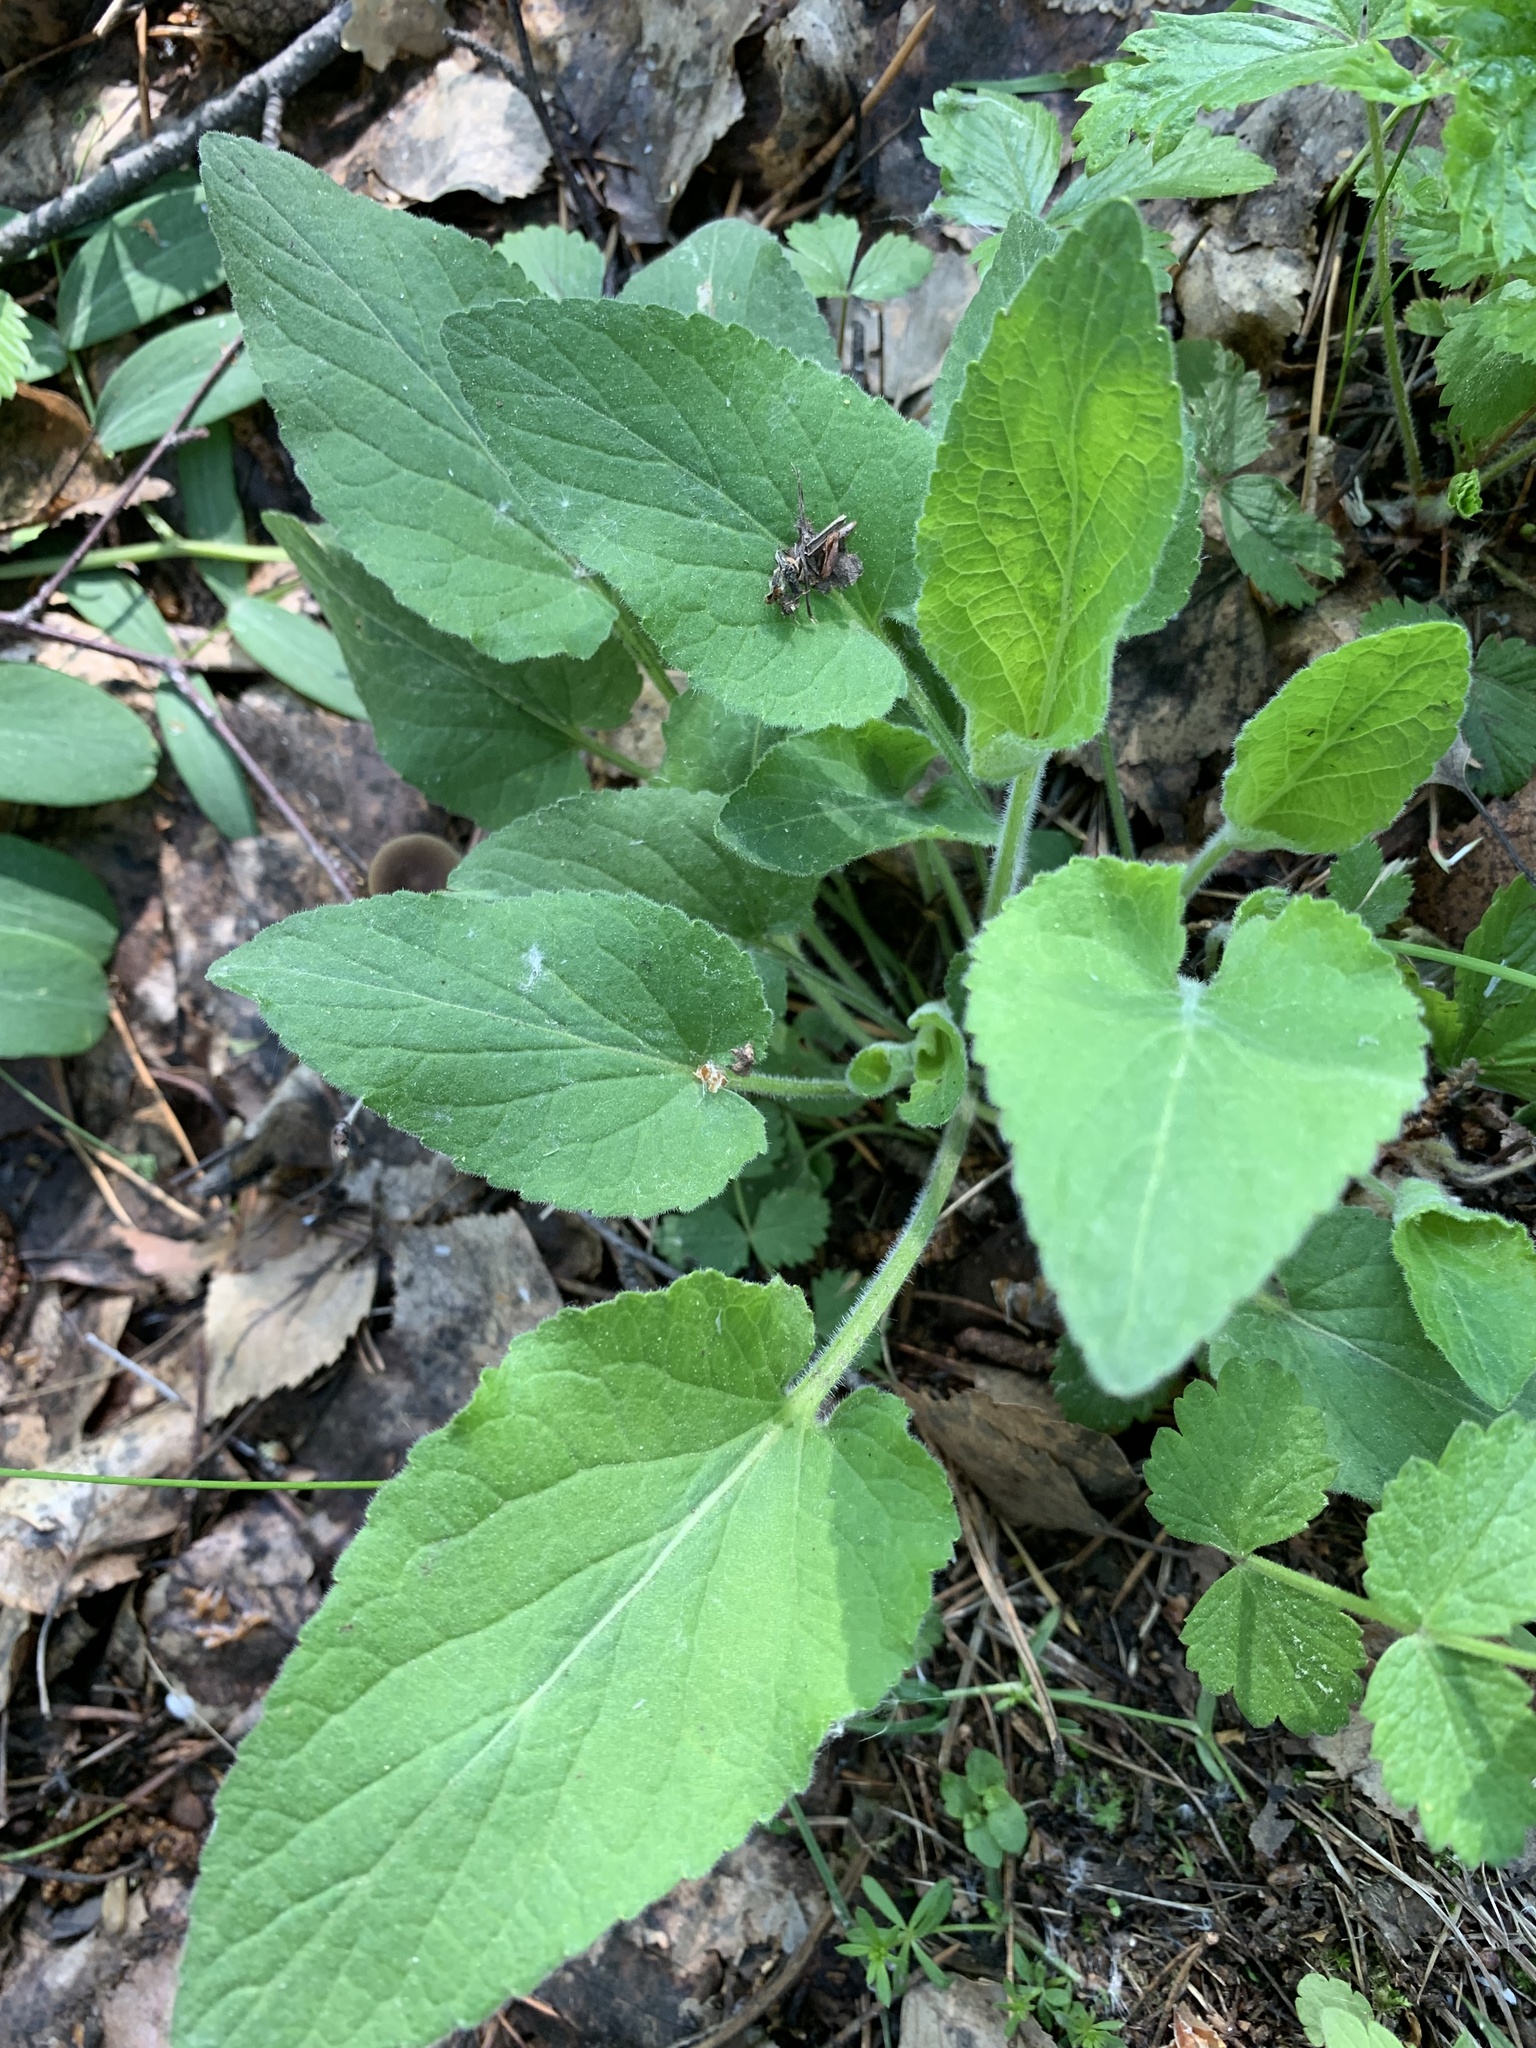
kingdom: Plantae
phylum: Tracheophyta
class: Magnoliopsida
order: Malpighiales
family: Violaceae
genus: Viola
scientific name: Viola hirta
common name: Hairy violet
